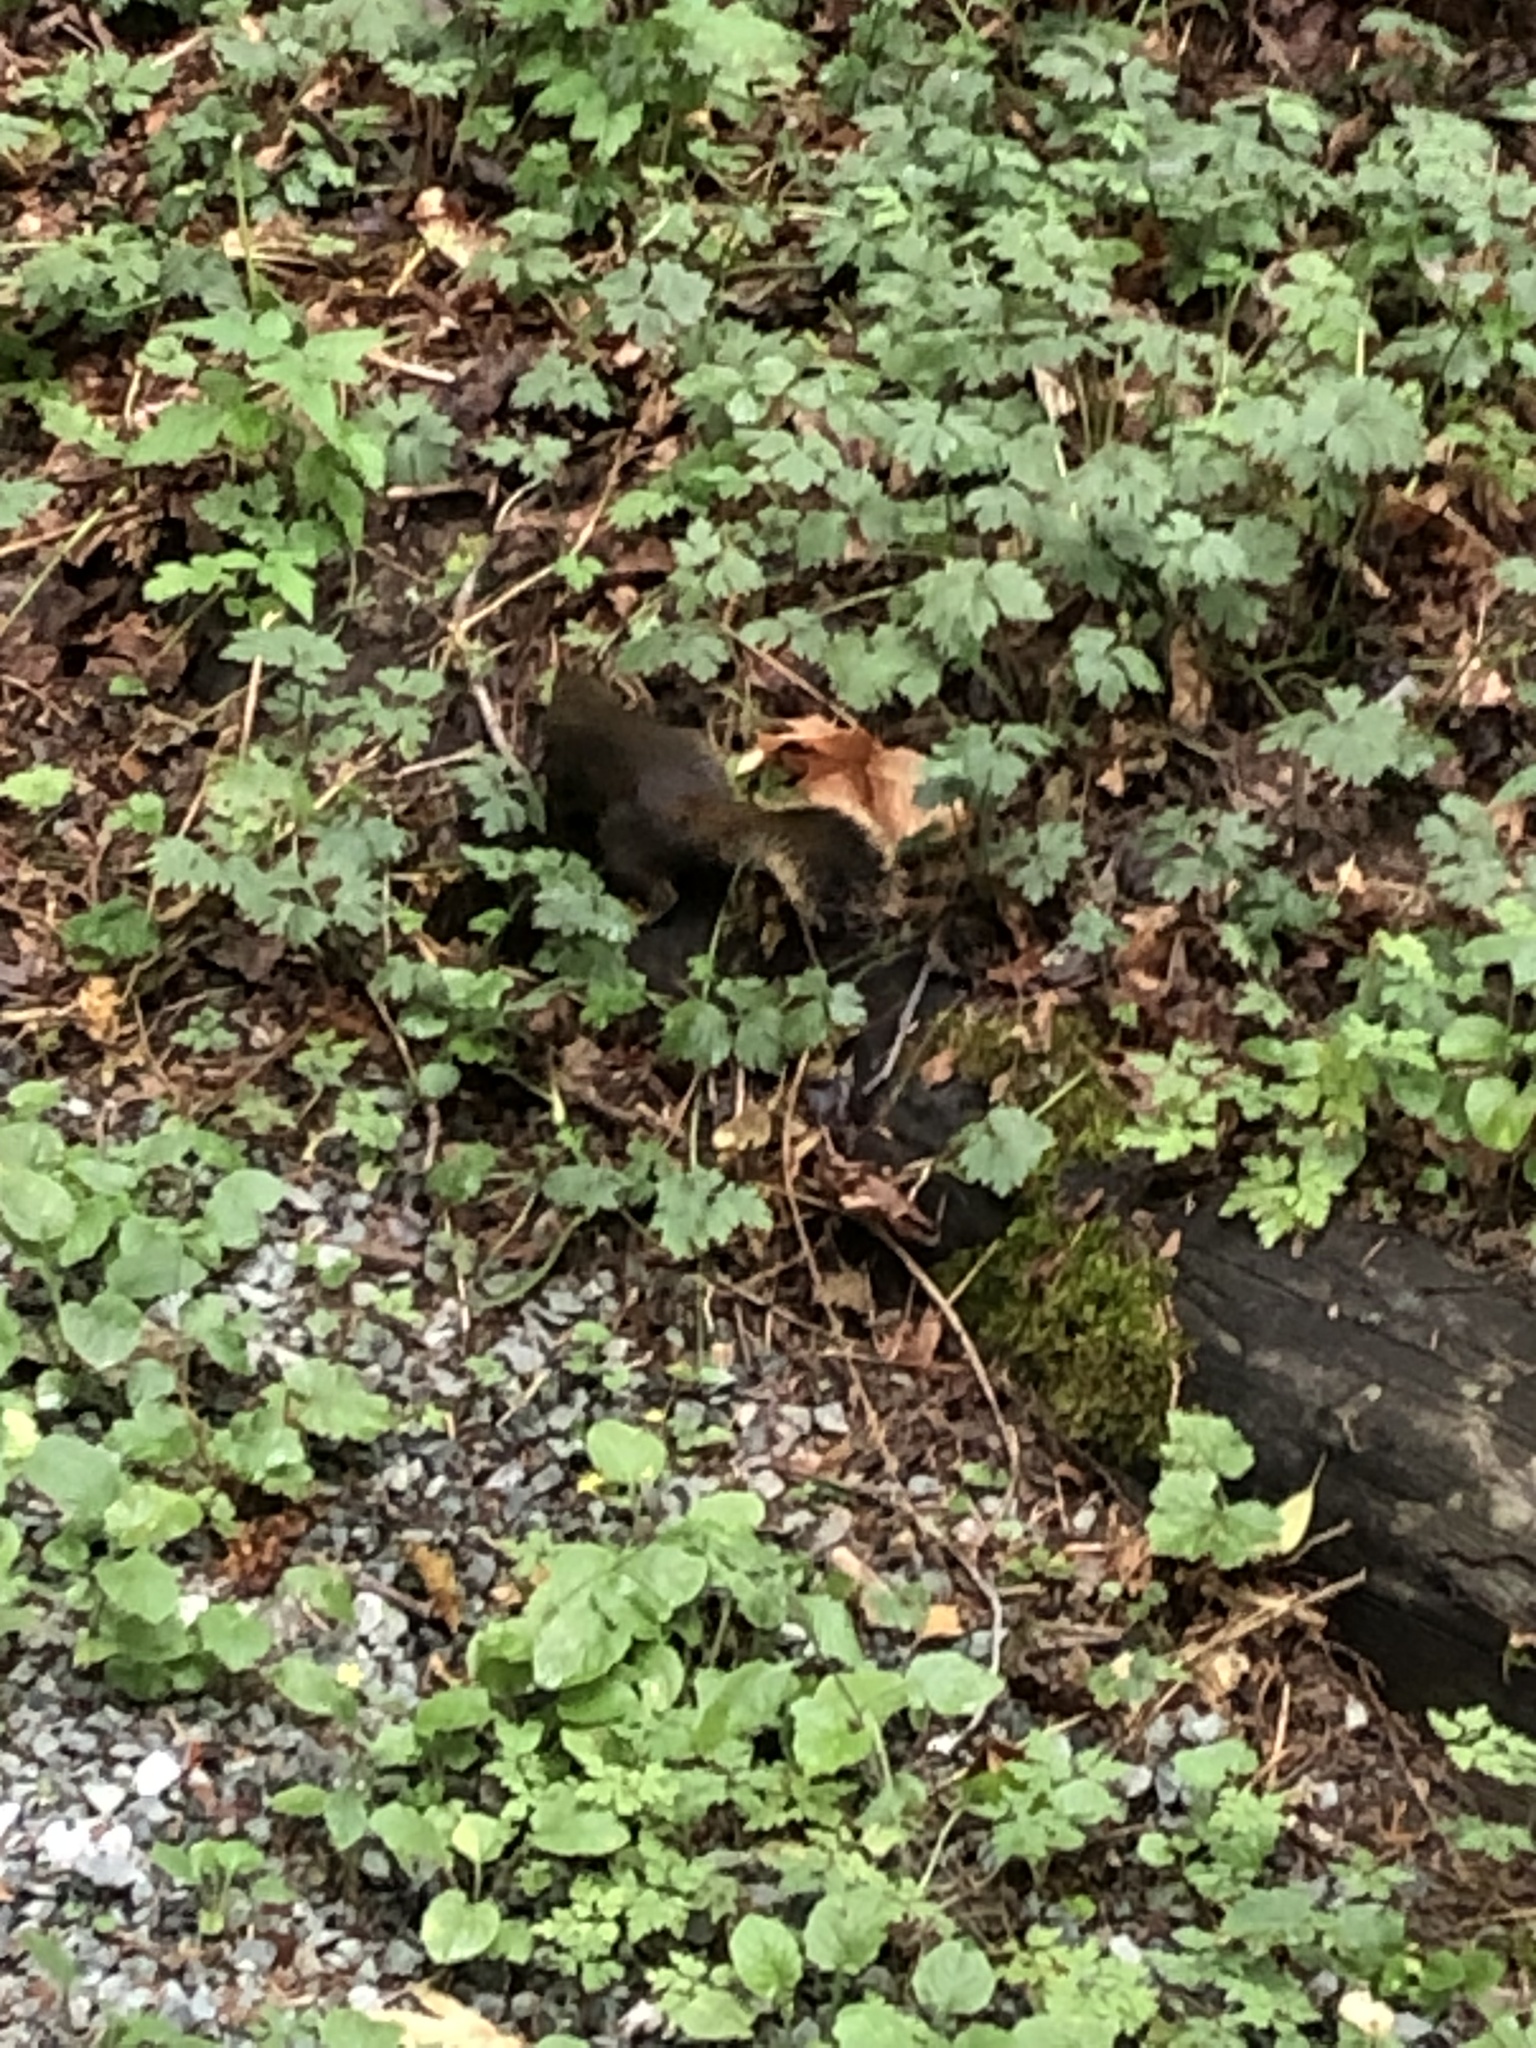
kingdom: Animalia
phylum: Chordata
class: Mammalia
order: Rodentia
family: Sciuridae
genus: Tamiasciurus
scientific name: Tamiasciurus douglasii
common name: Douglas's squirrel
